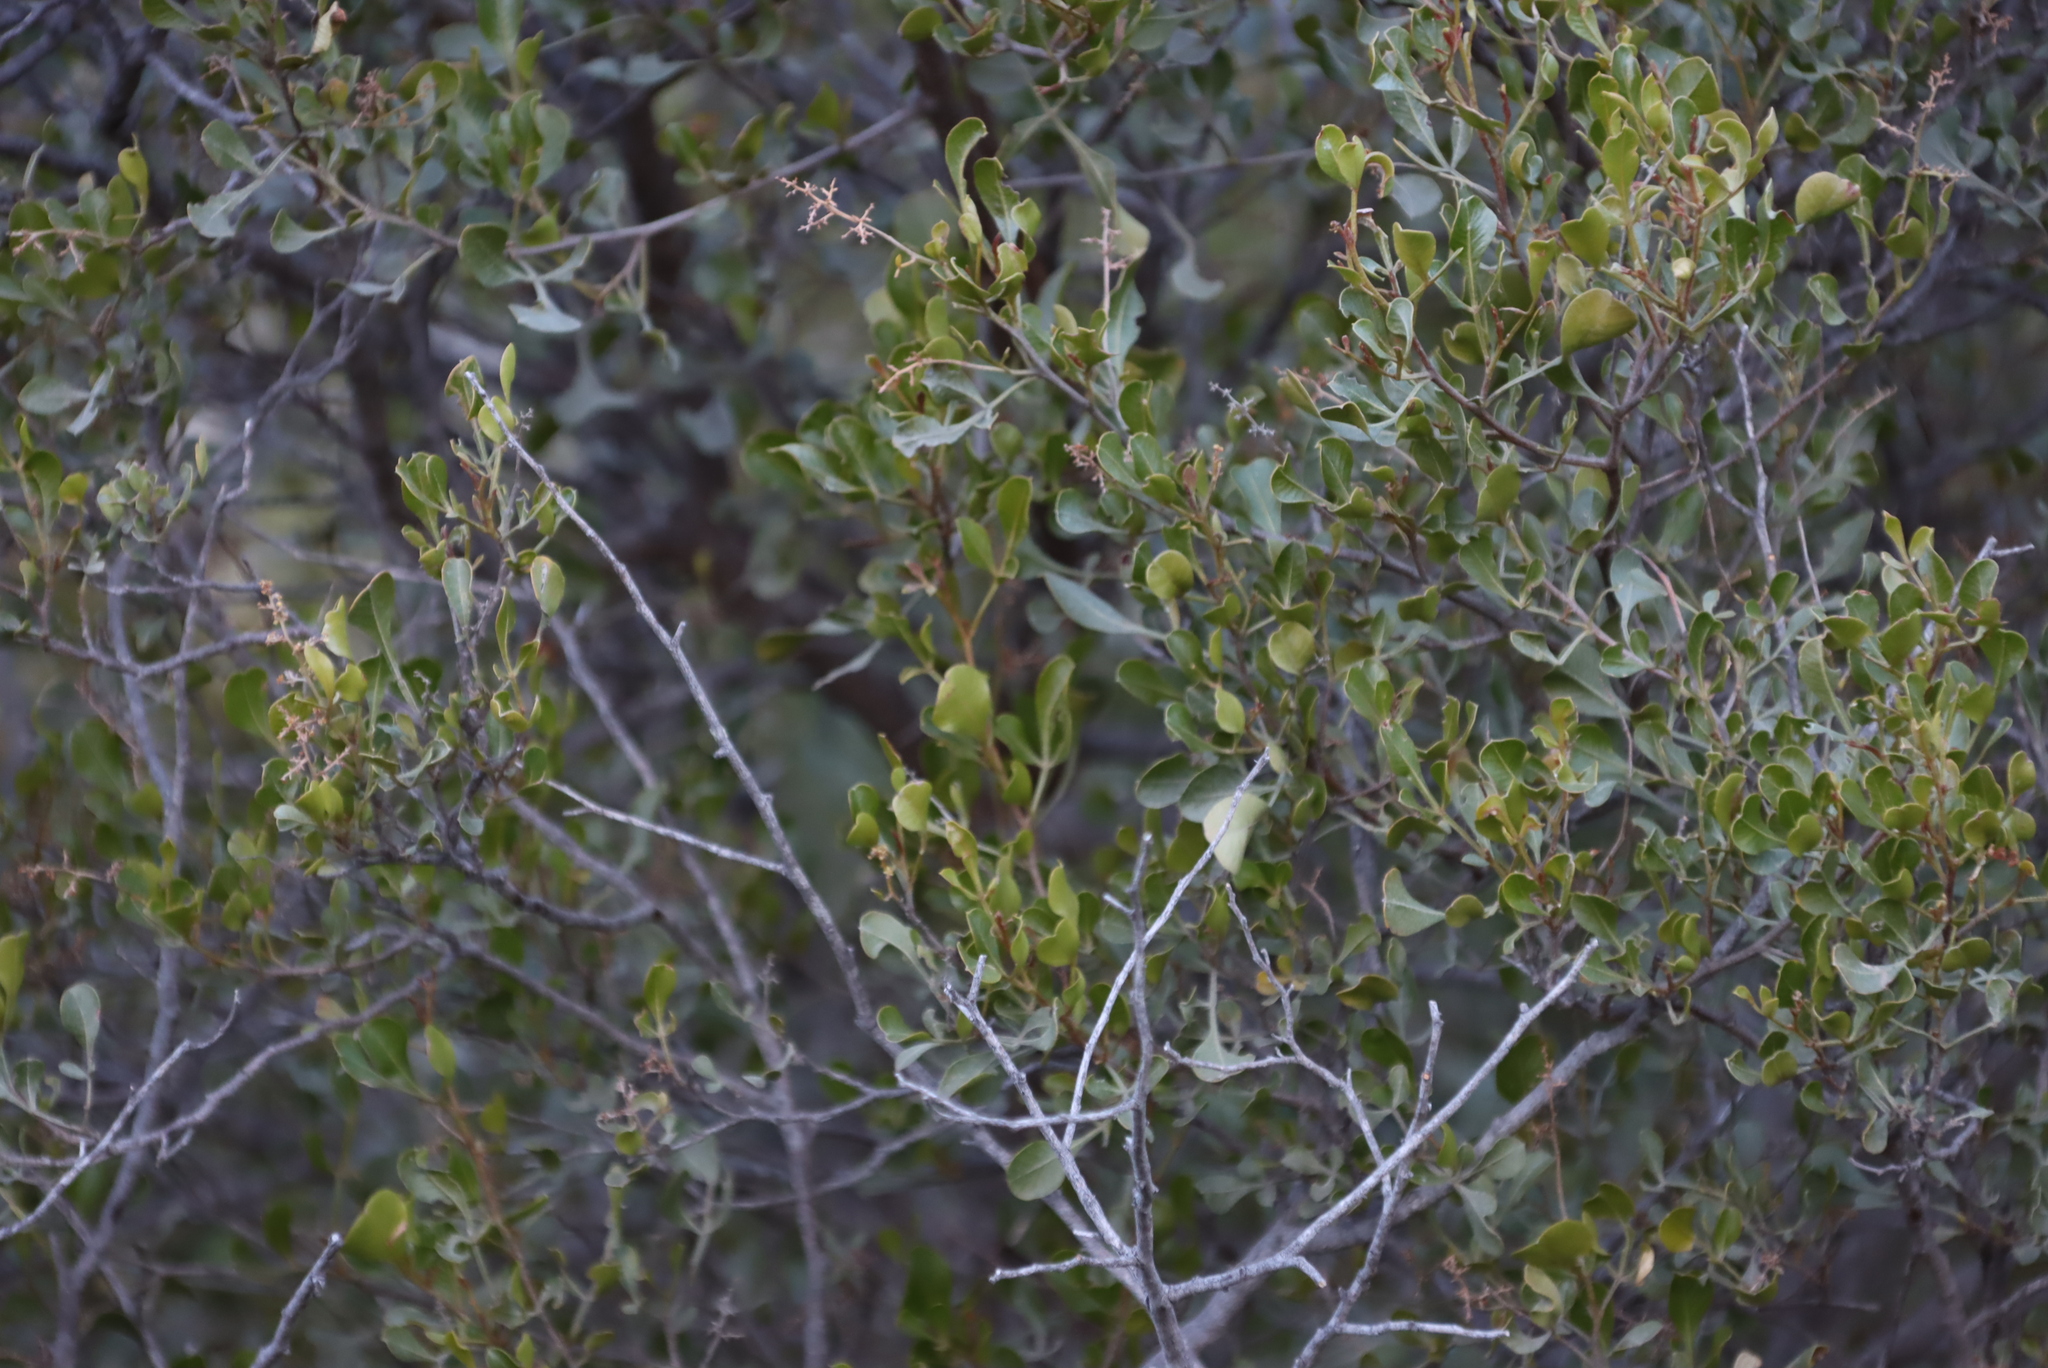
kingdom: Plantae
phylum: Tracheophyta
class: Magnoliopsida
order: Sapindales
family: Anacardiaceae
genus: Searsia
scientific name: Searsia pallens
